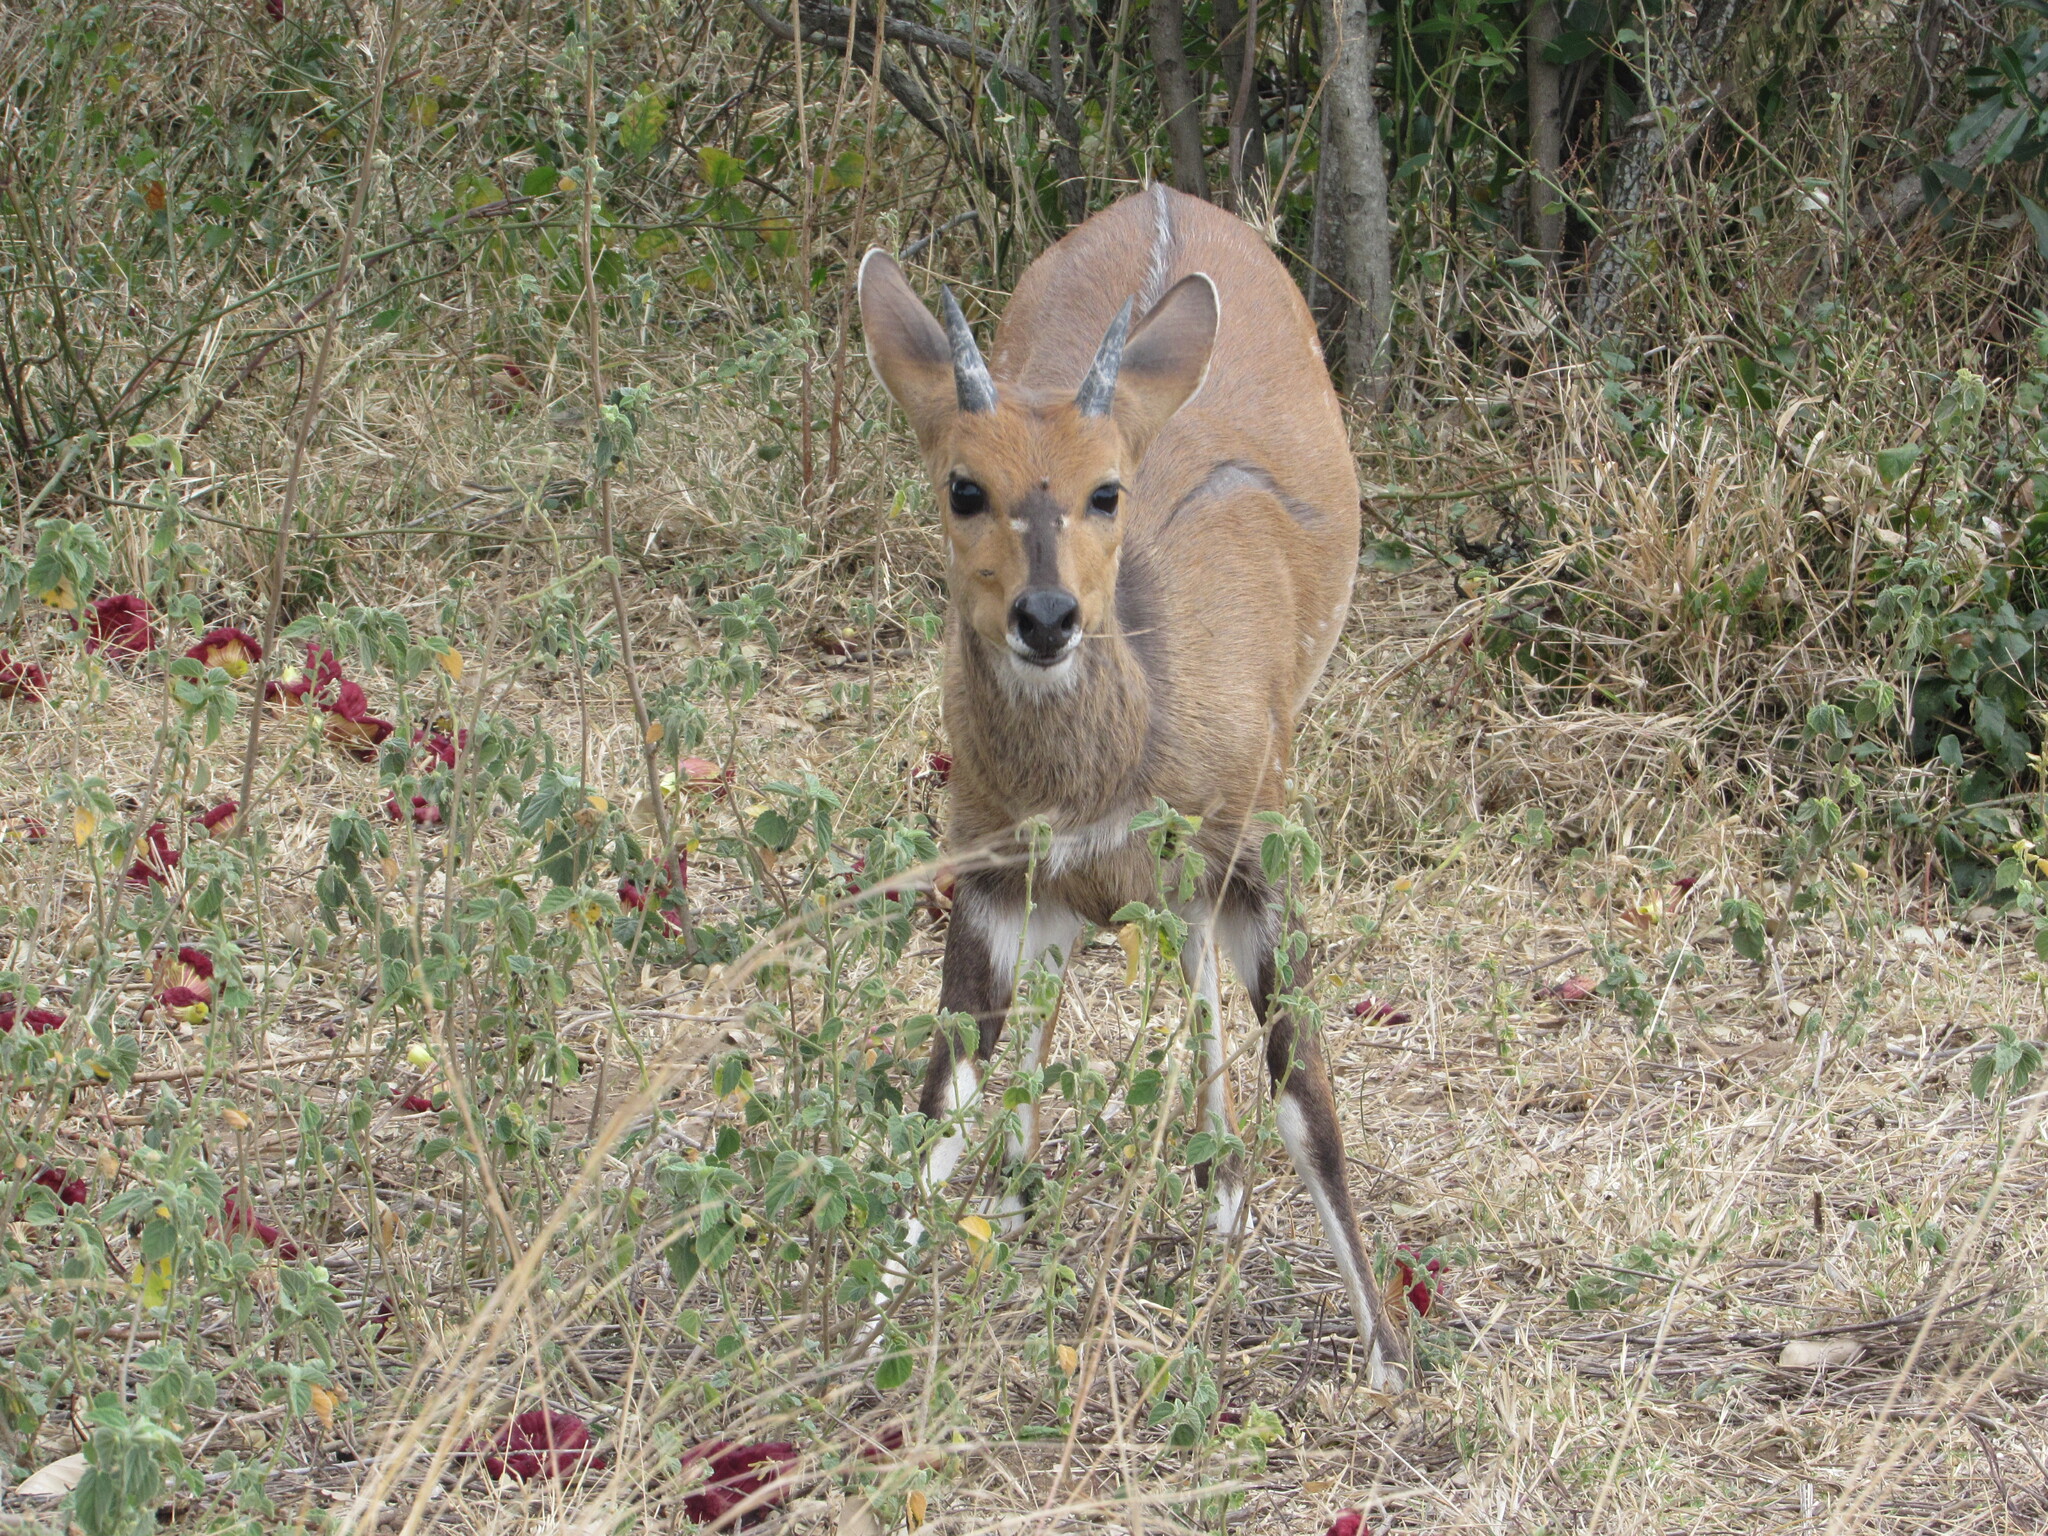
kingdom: Animalia
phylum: Chordata
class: Mammalia
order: Artiodactyla
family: Bovidae
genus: Tragelaphus
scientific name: Tragelaphus scriptus
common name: Bushbuck
